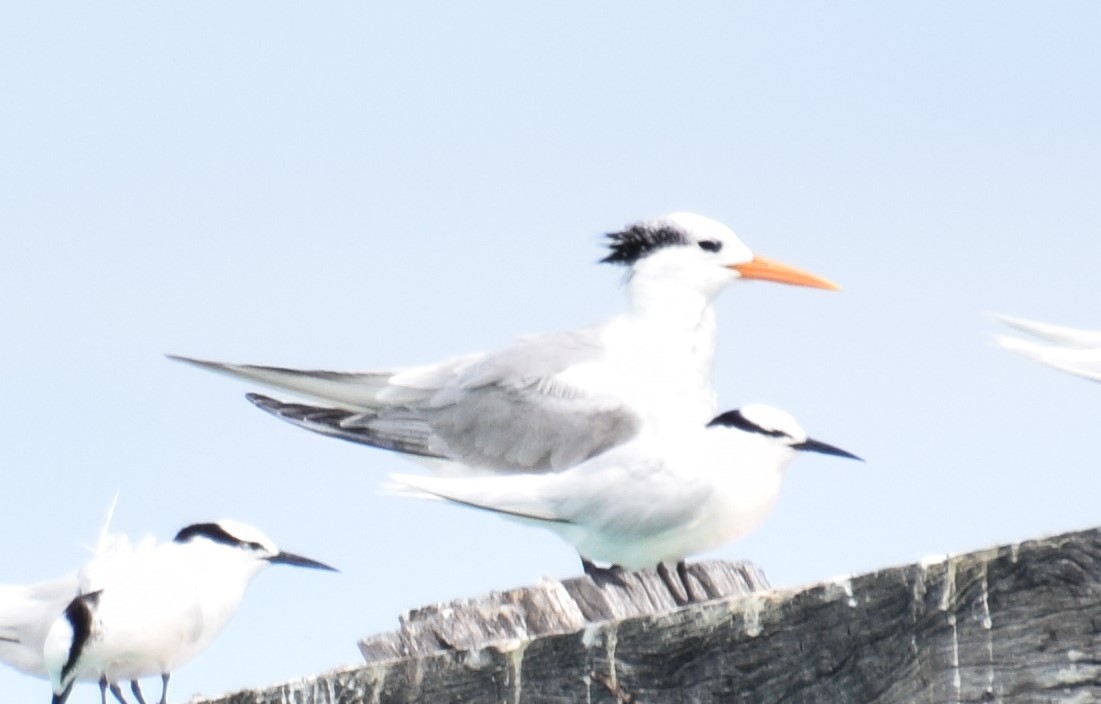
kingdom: Animalia
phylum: Chordata
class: Aves
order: Charadriiformes
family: Laridae
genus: Thalasseus
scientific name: Thalasseus bengalensis
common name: Lesser crested tern
